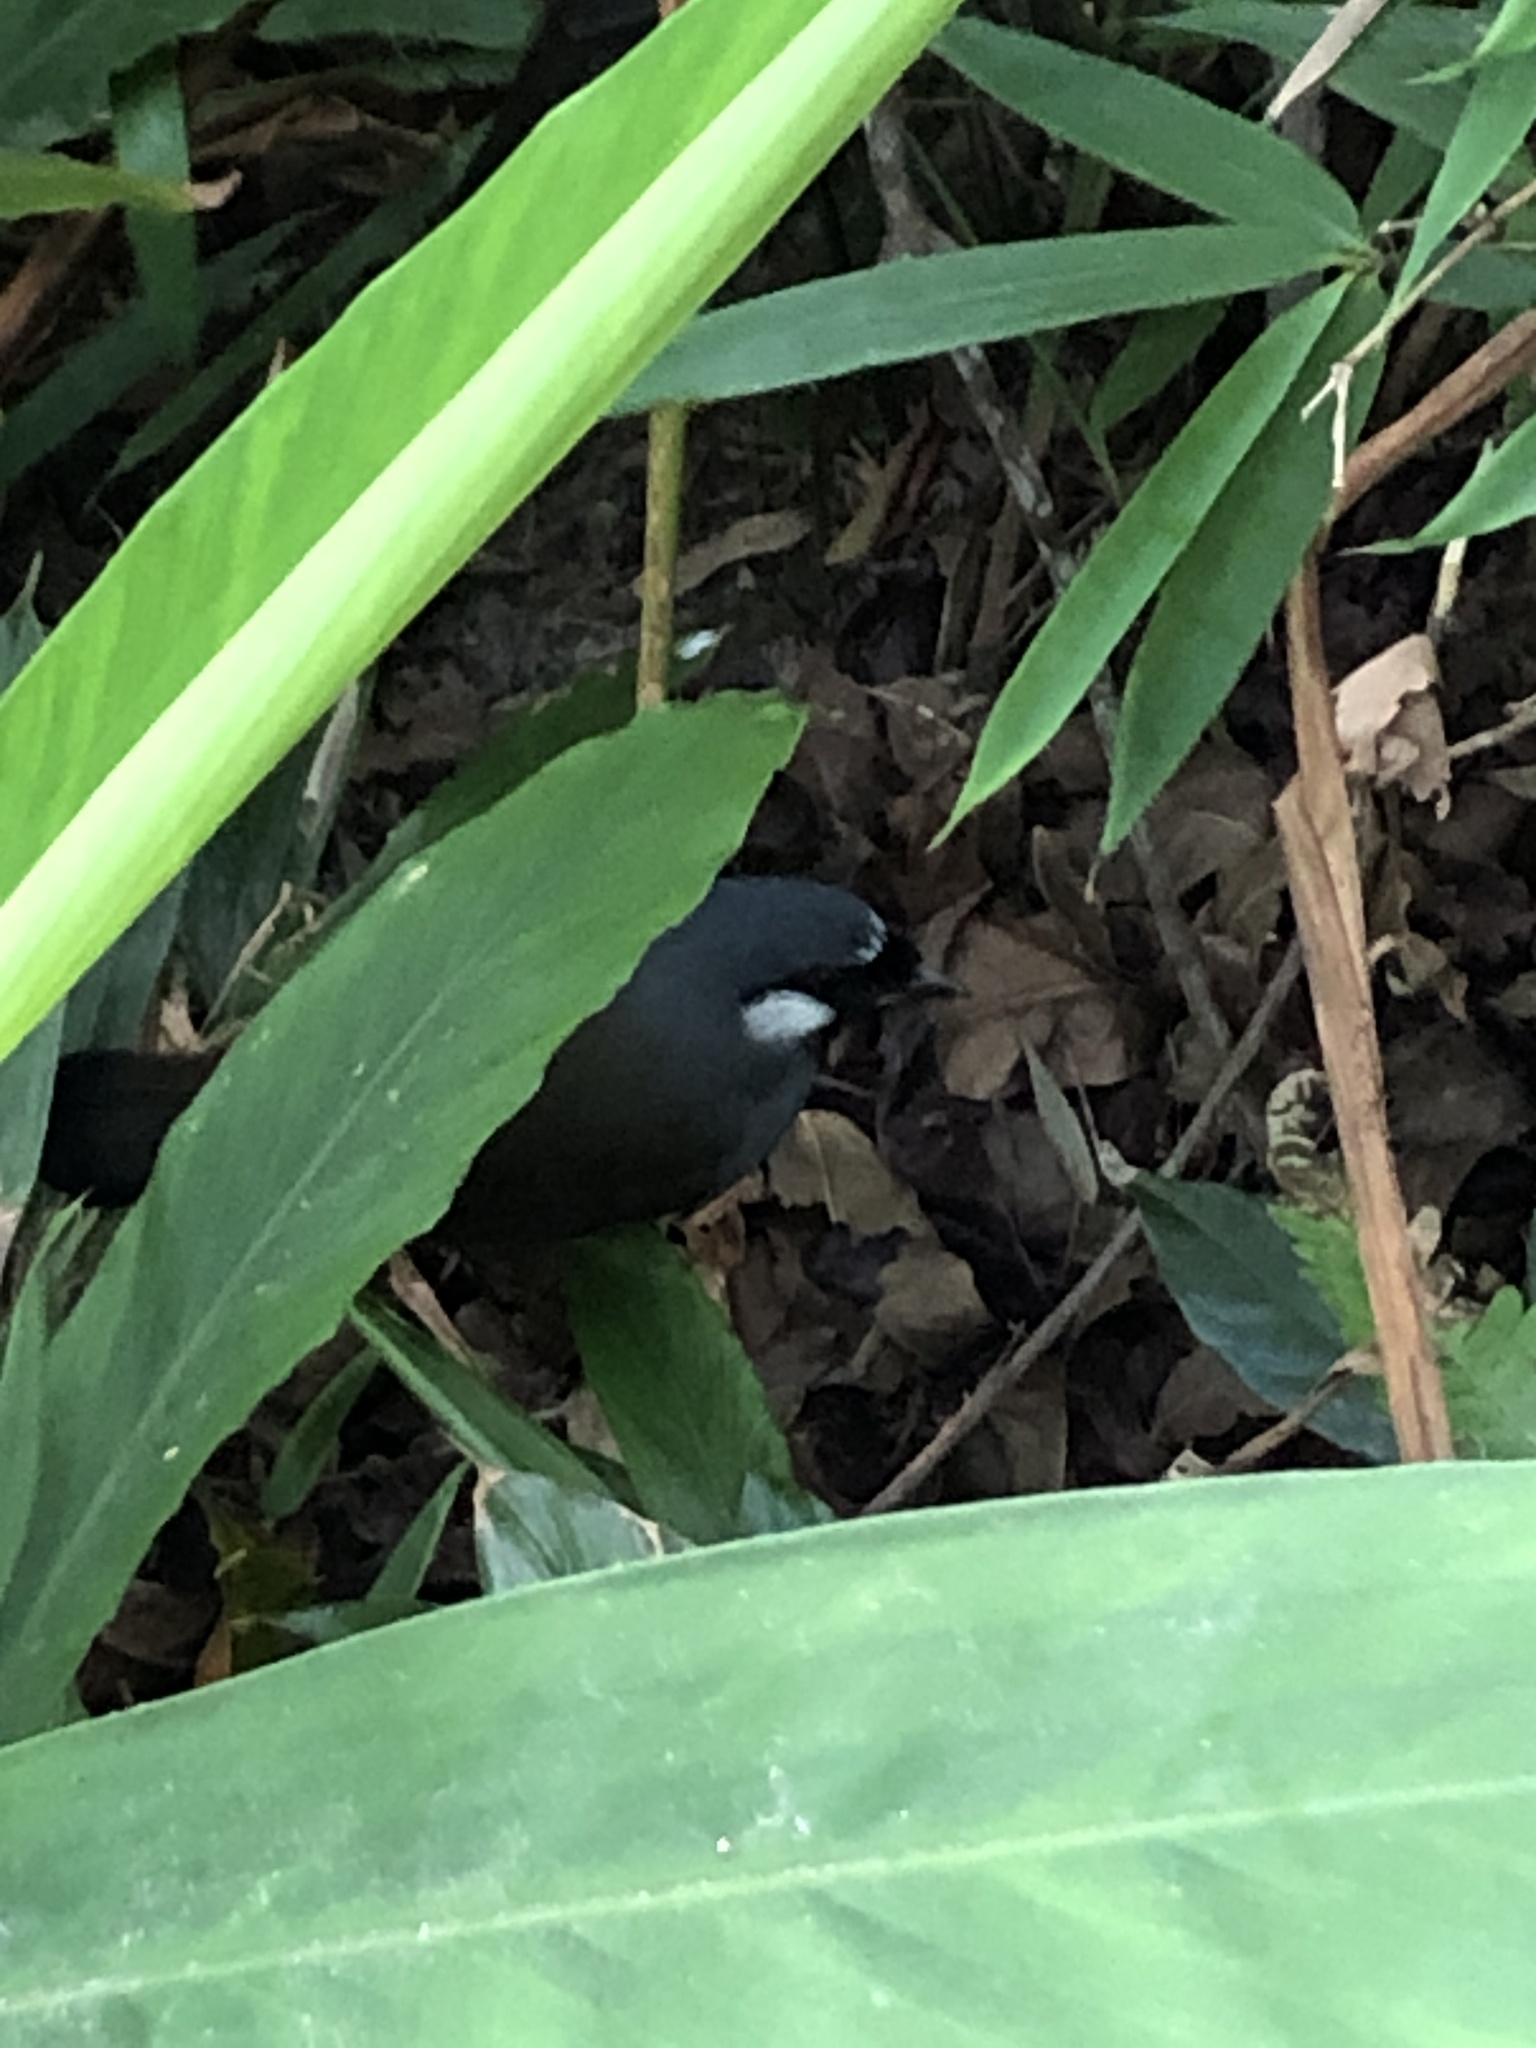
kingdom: Animalia
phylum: Chordata
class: Aves
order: Passeriformes
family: Leiothrichidae
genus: Garrulax
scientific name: Garrulax chinensis
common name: Black-throated laughingthrush
